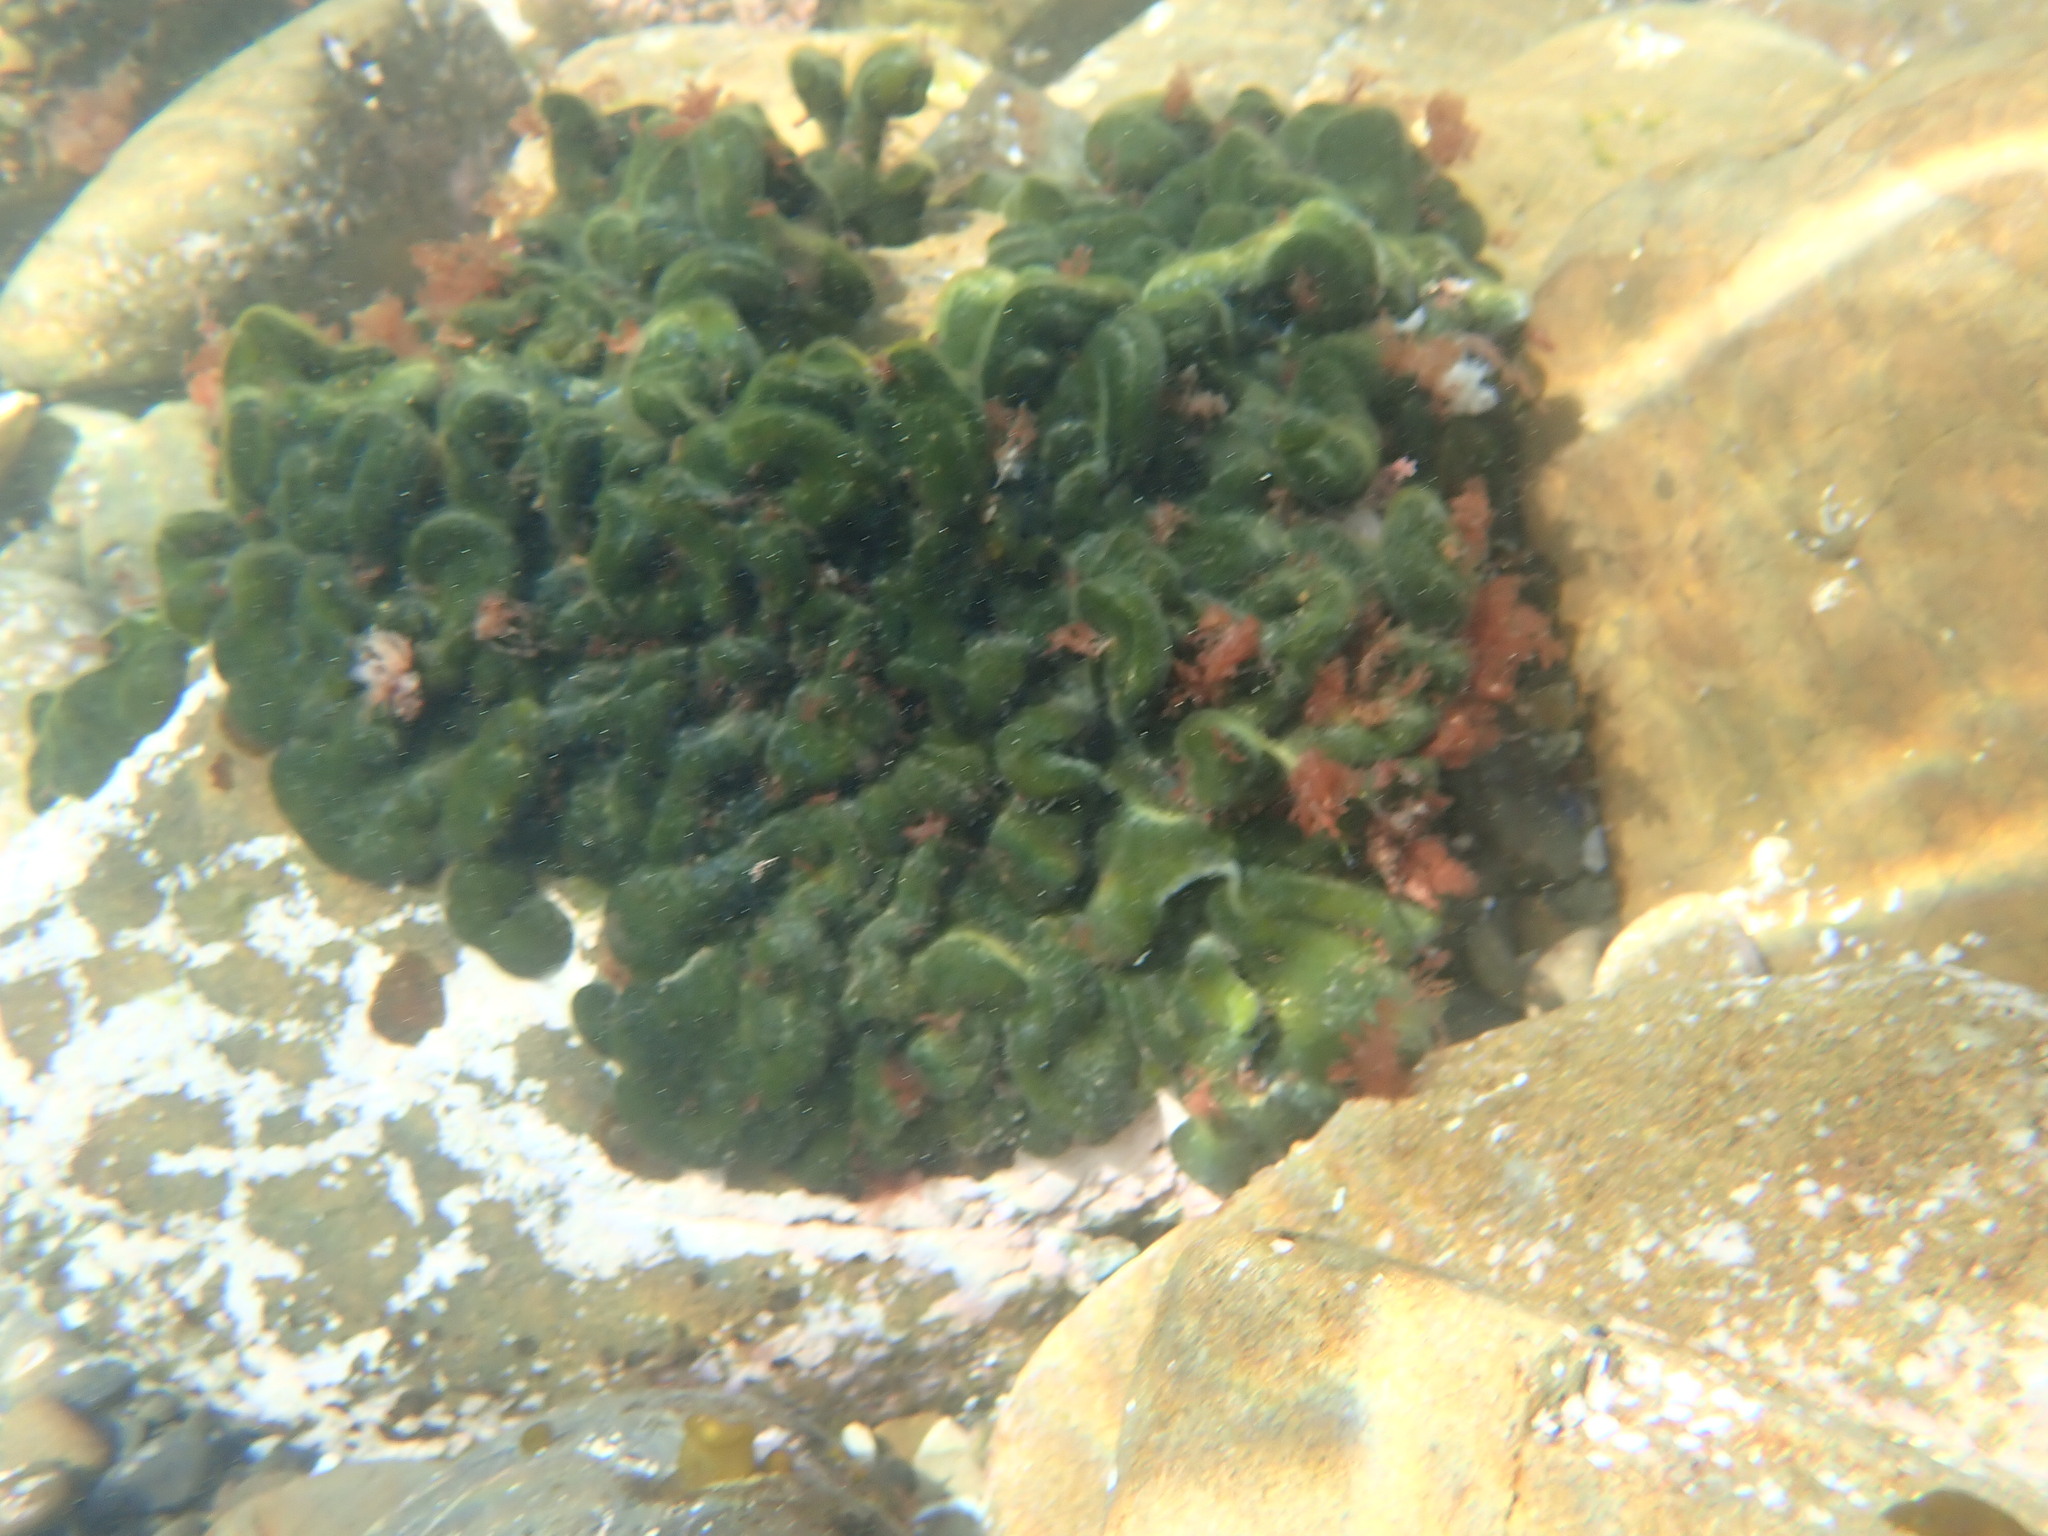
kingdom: Plantae
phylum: Chlorophyta
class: Ulvophyceae
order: Bryopsidales
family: Codiaceae
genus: Codium
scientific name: Codium convolutum
